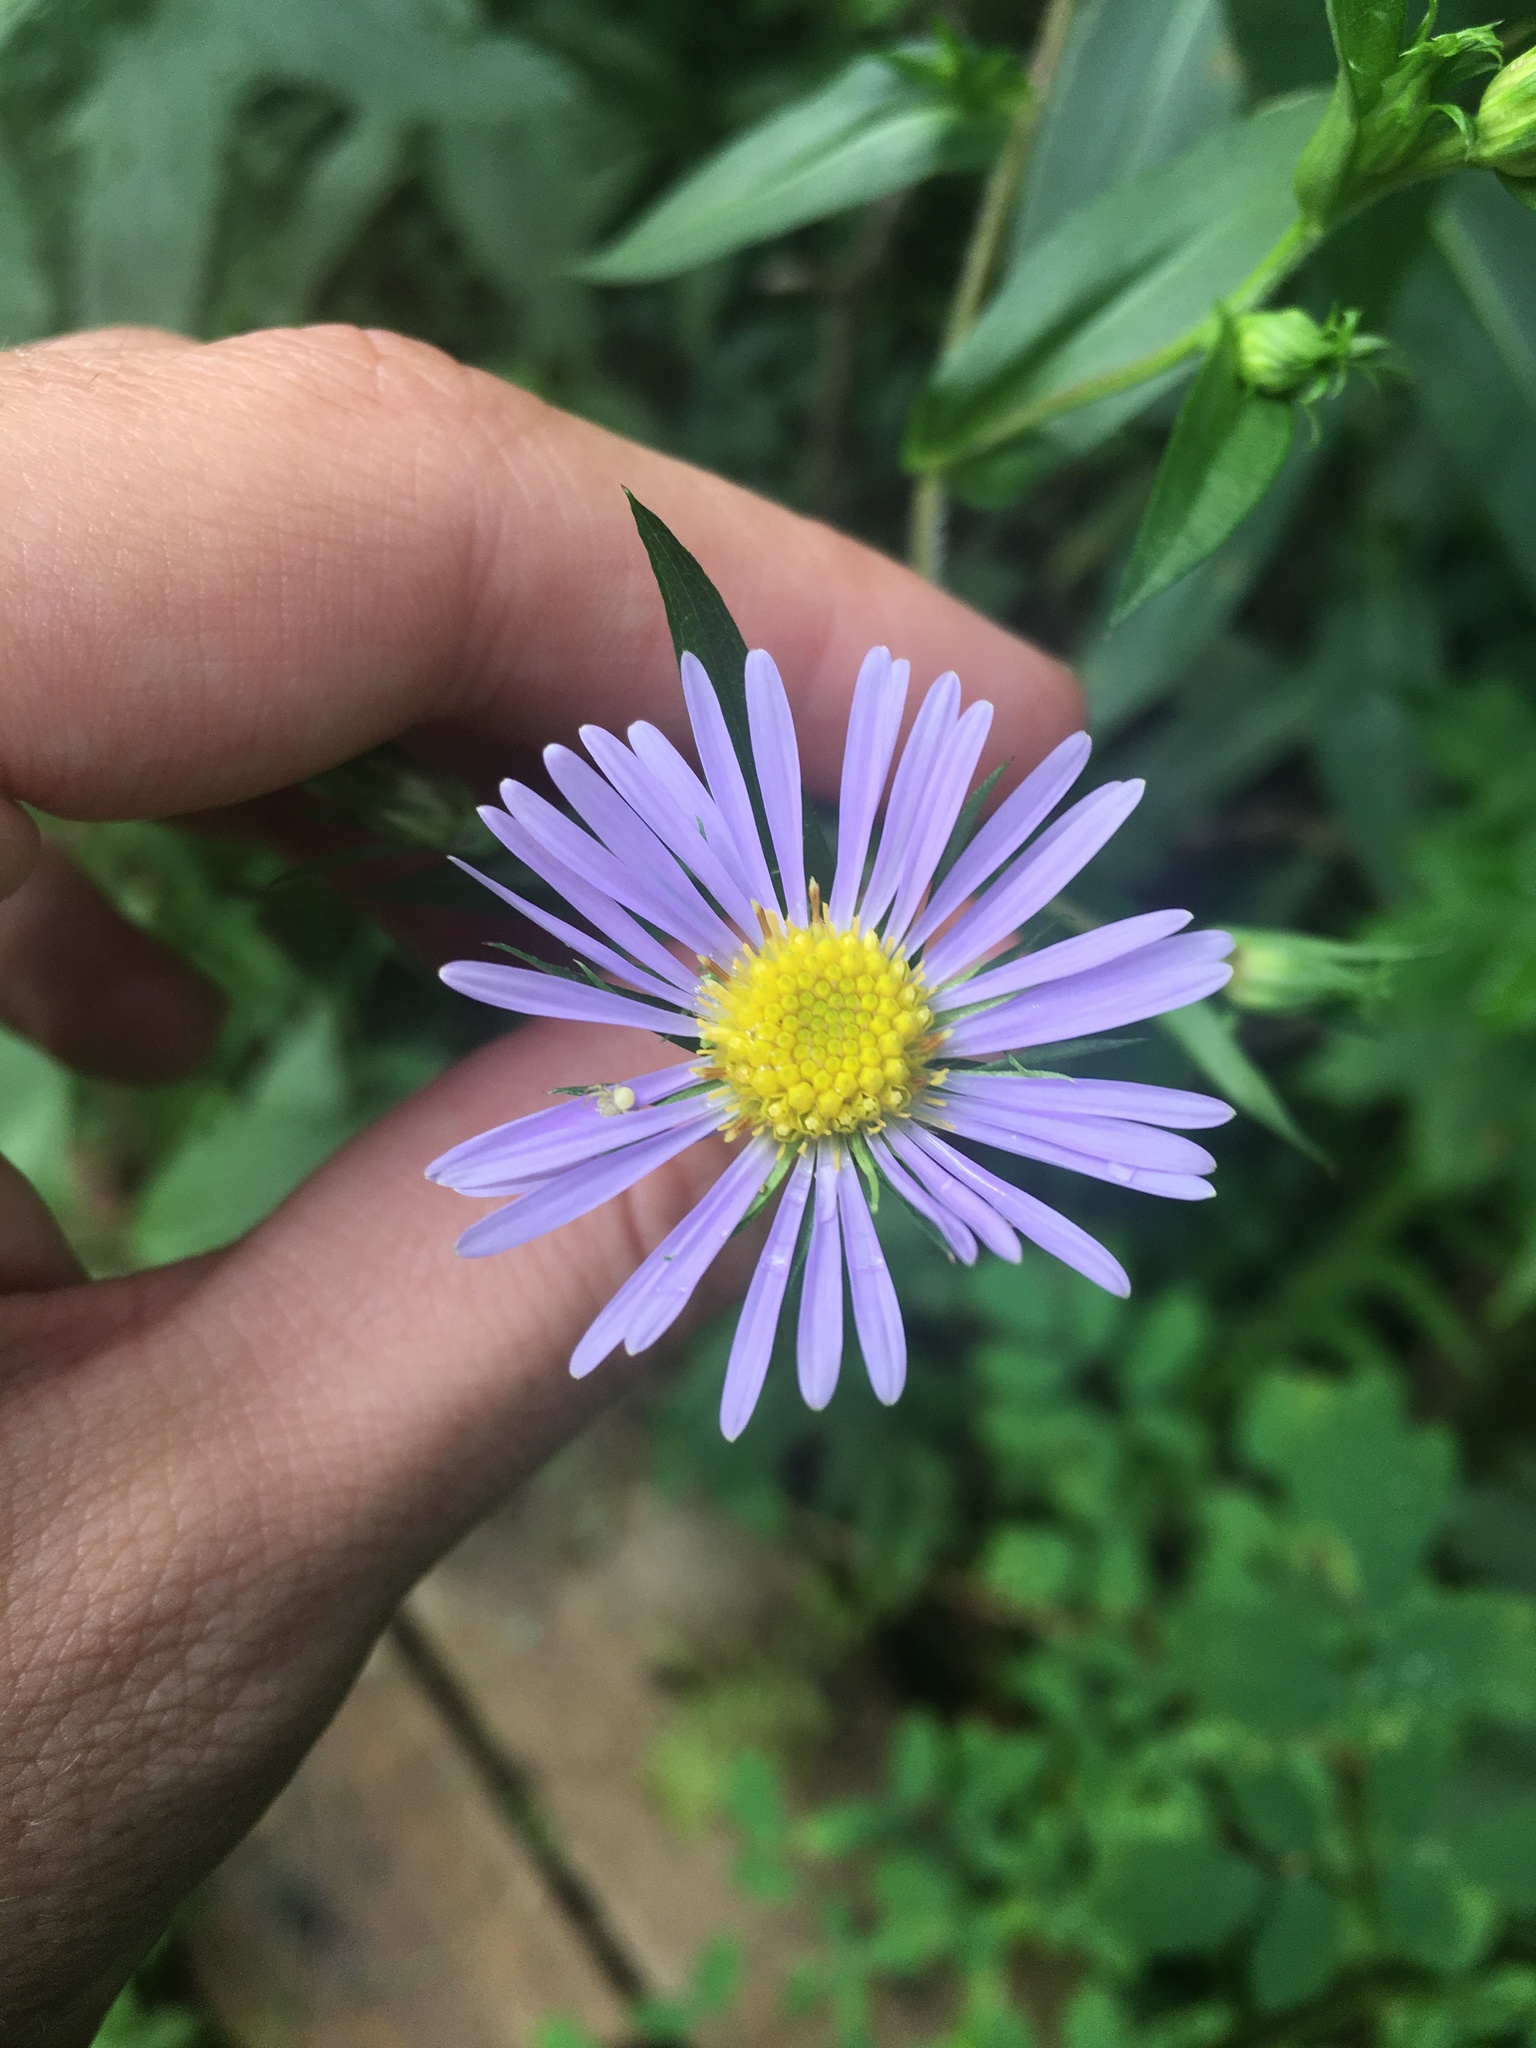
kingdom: Plantae
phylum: Tracheophyta
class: Magnoliopsida
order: Asterales
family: Asteraceae
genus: Symphyotrichum
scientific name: Symphyotrichum puniceum
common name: Bog aster
